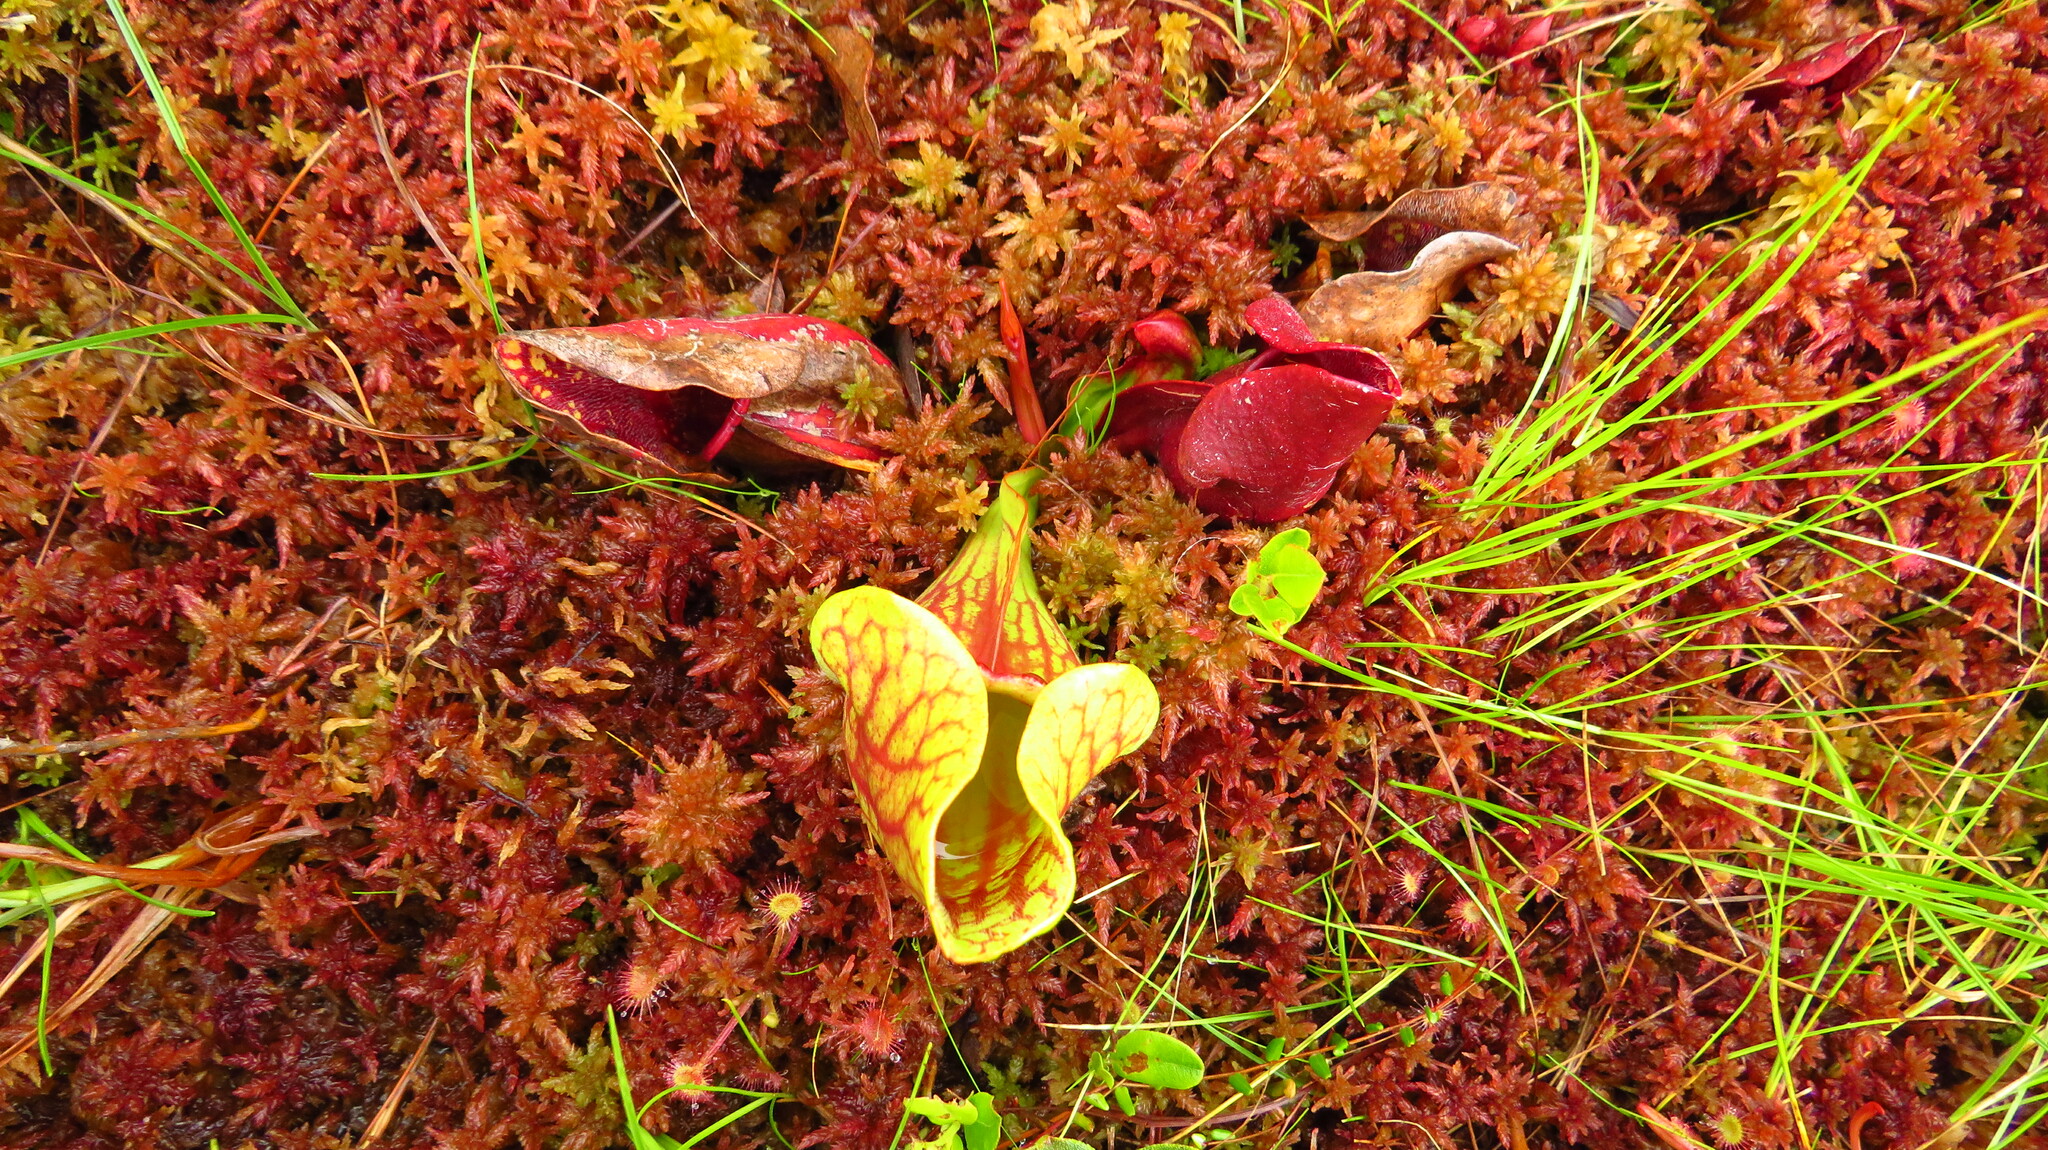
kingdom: Plantae
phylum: Tracheophyta
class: Magnoliopsida
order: Ericales
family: Sarraceniaceae
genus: Sarracenia
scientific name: Sarracenia purpurea
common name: Pitcherplant
